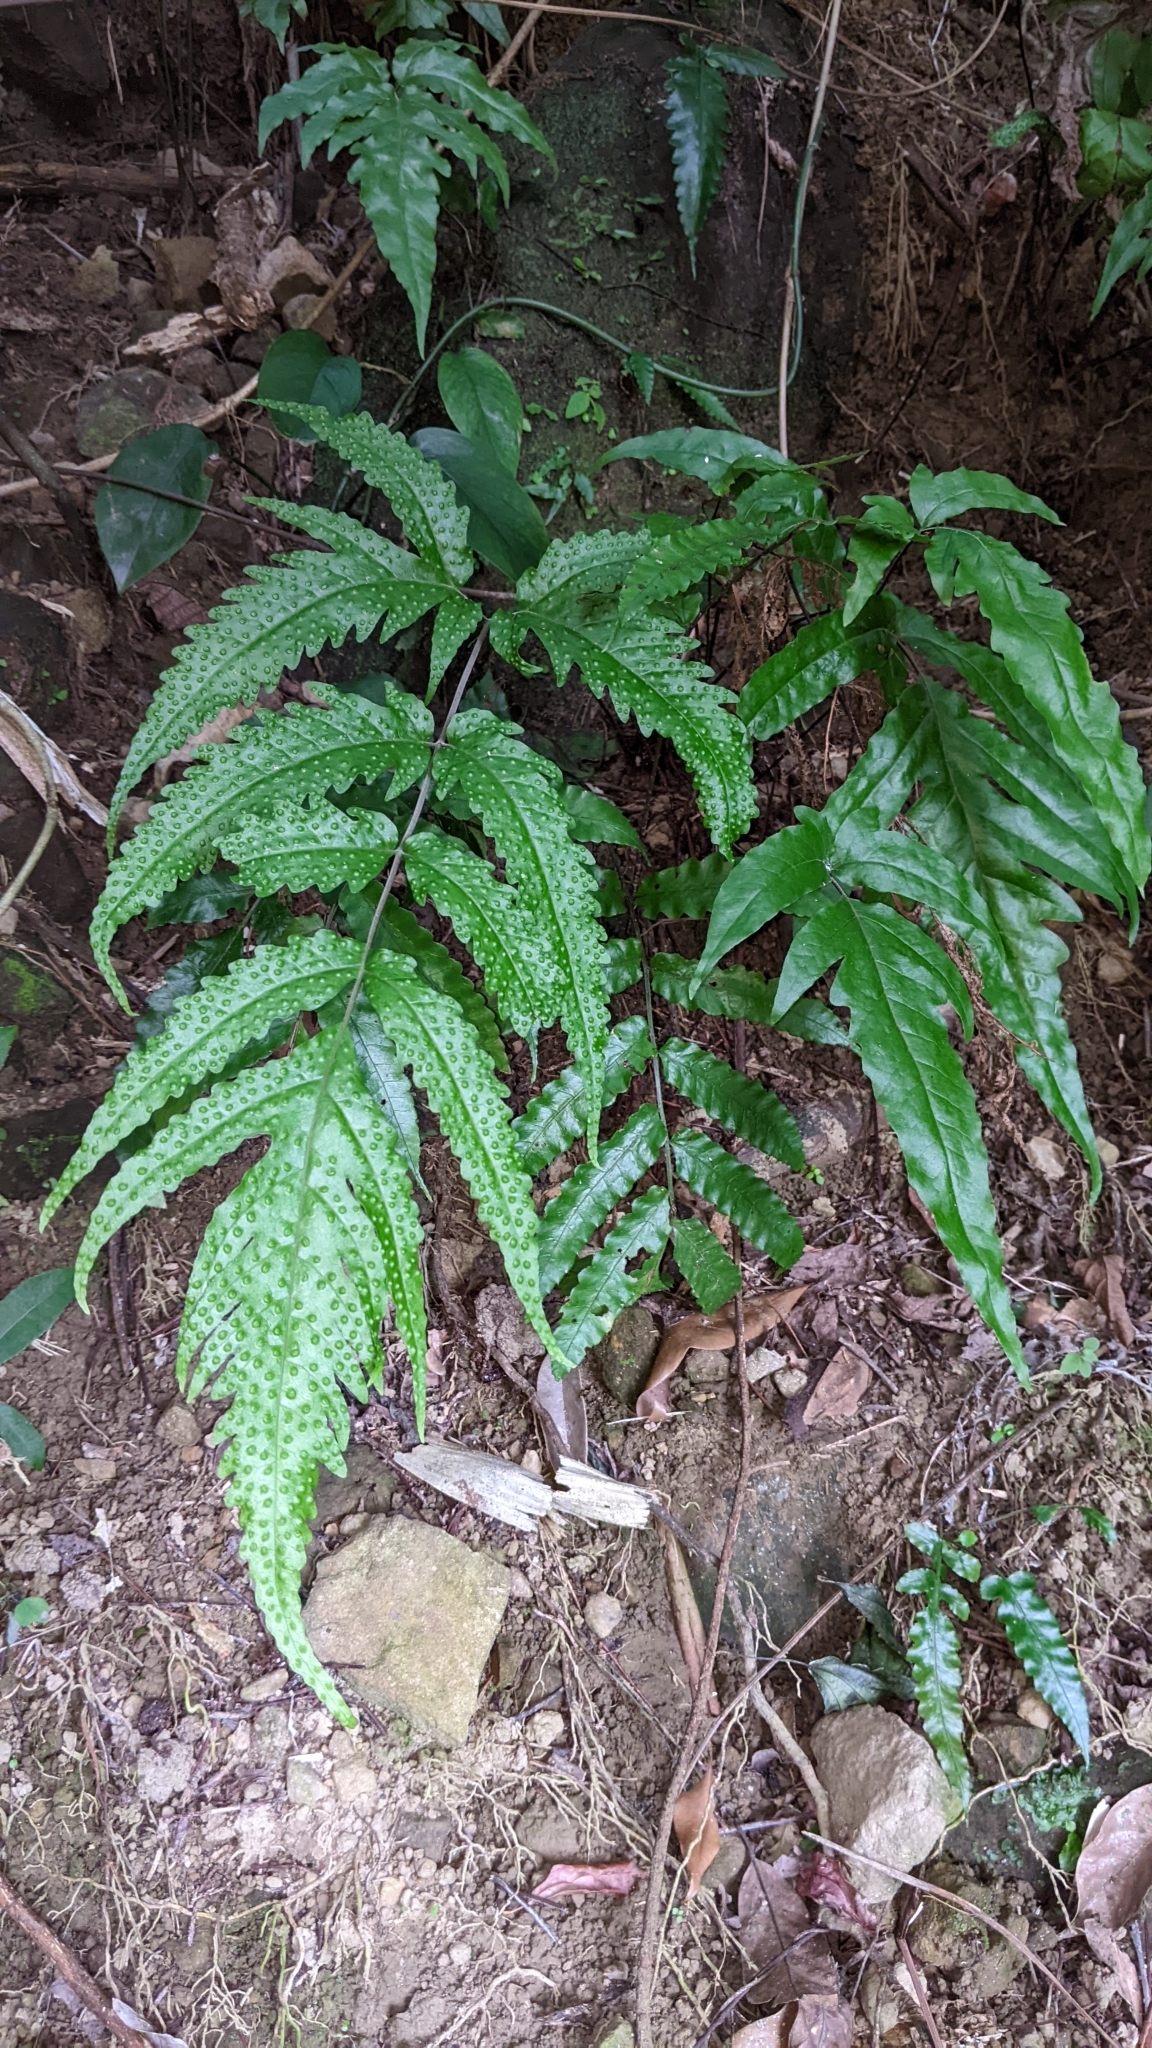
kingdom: Plantae
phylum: Tracheophyta
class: Polypodiopsida
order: Polypodiales
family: Tectariaceae
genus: Tectaria
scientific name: Tectaria phaeocaulis
